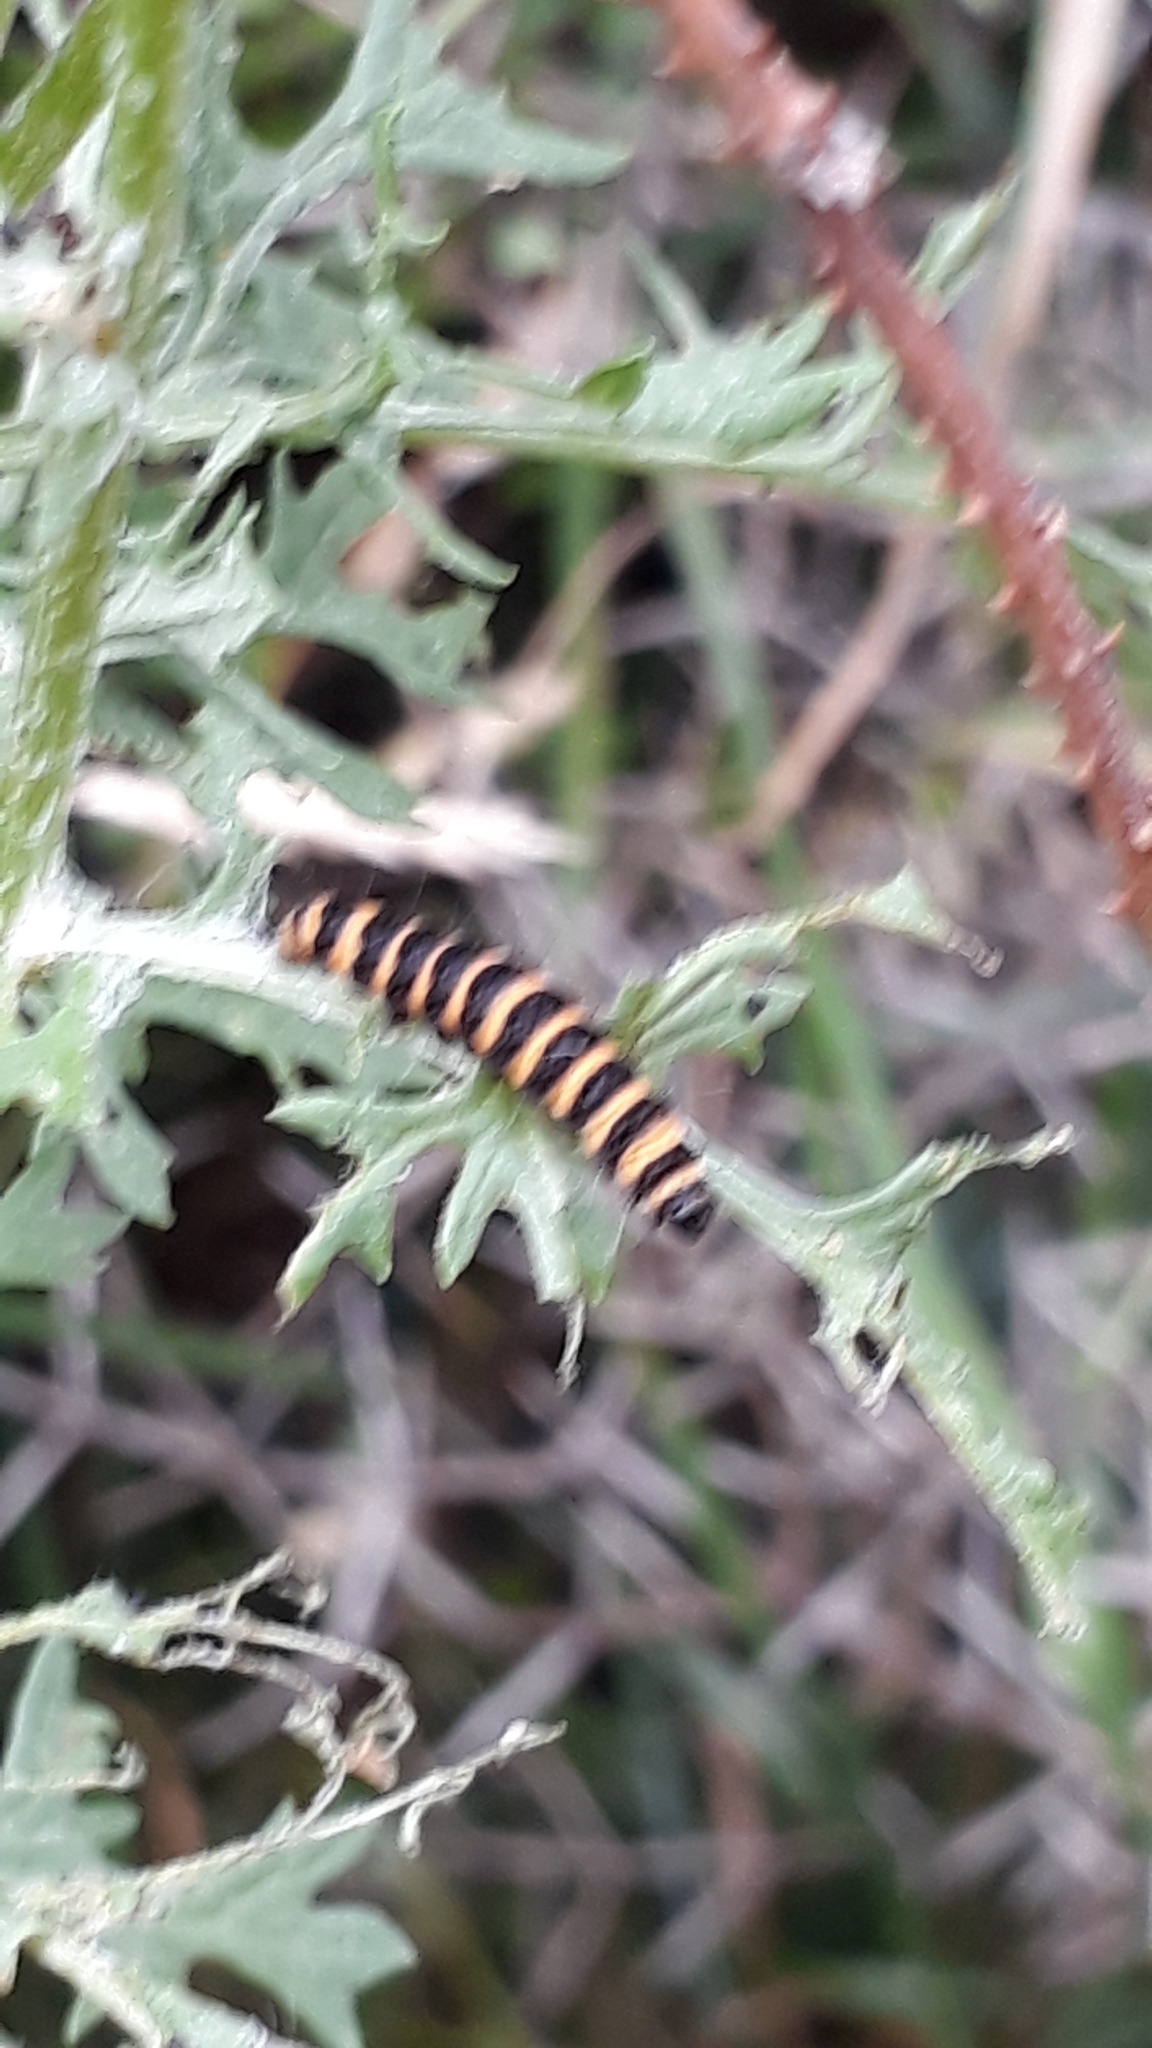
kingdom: Animalia
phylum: Arthropoda
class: Insecta
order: Lepidoptera
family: Erebidae
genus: Tyria
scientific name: Tyria jacobaeae
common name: Cinnabar
